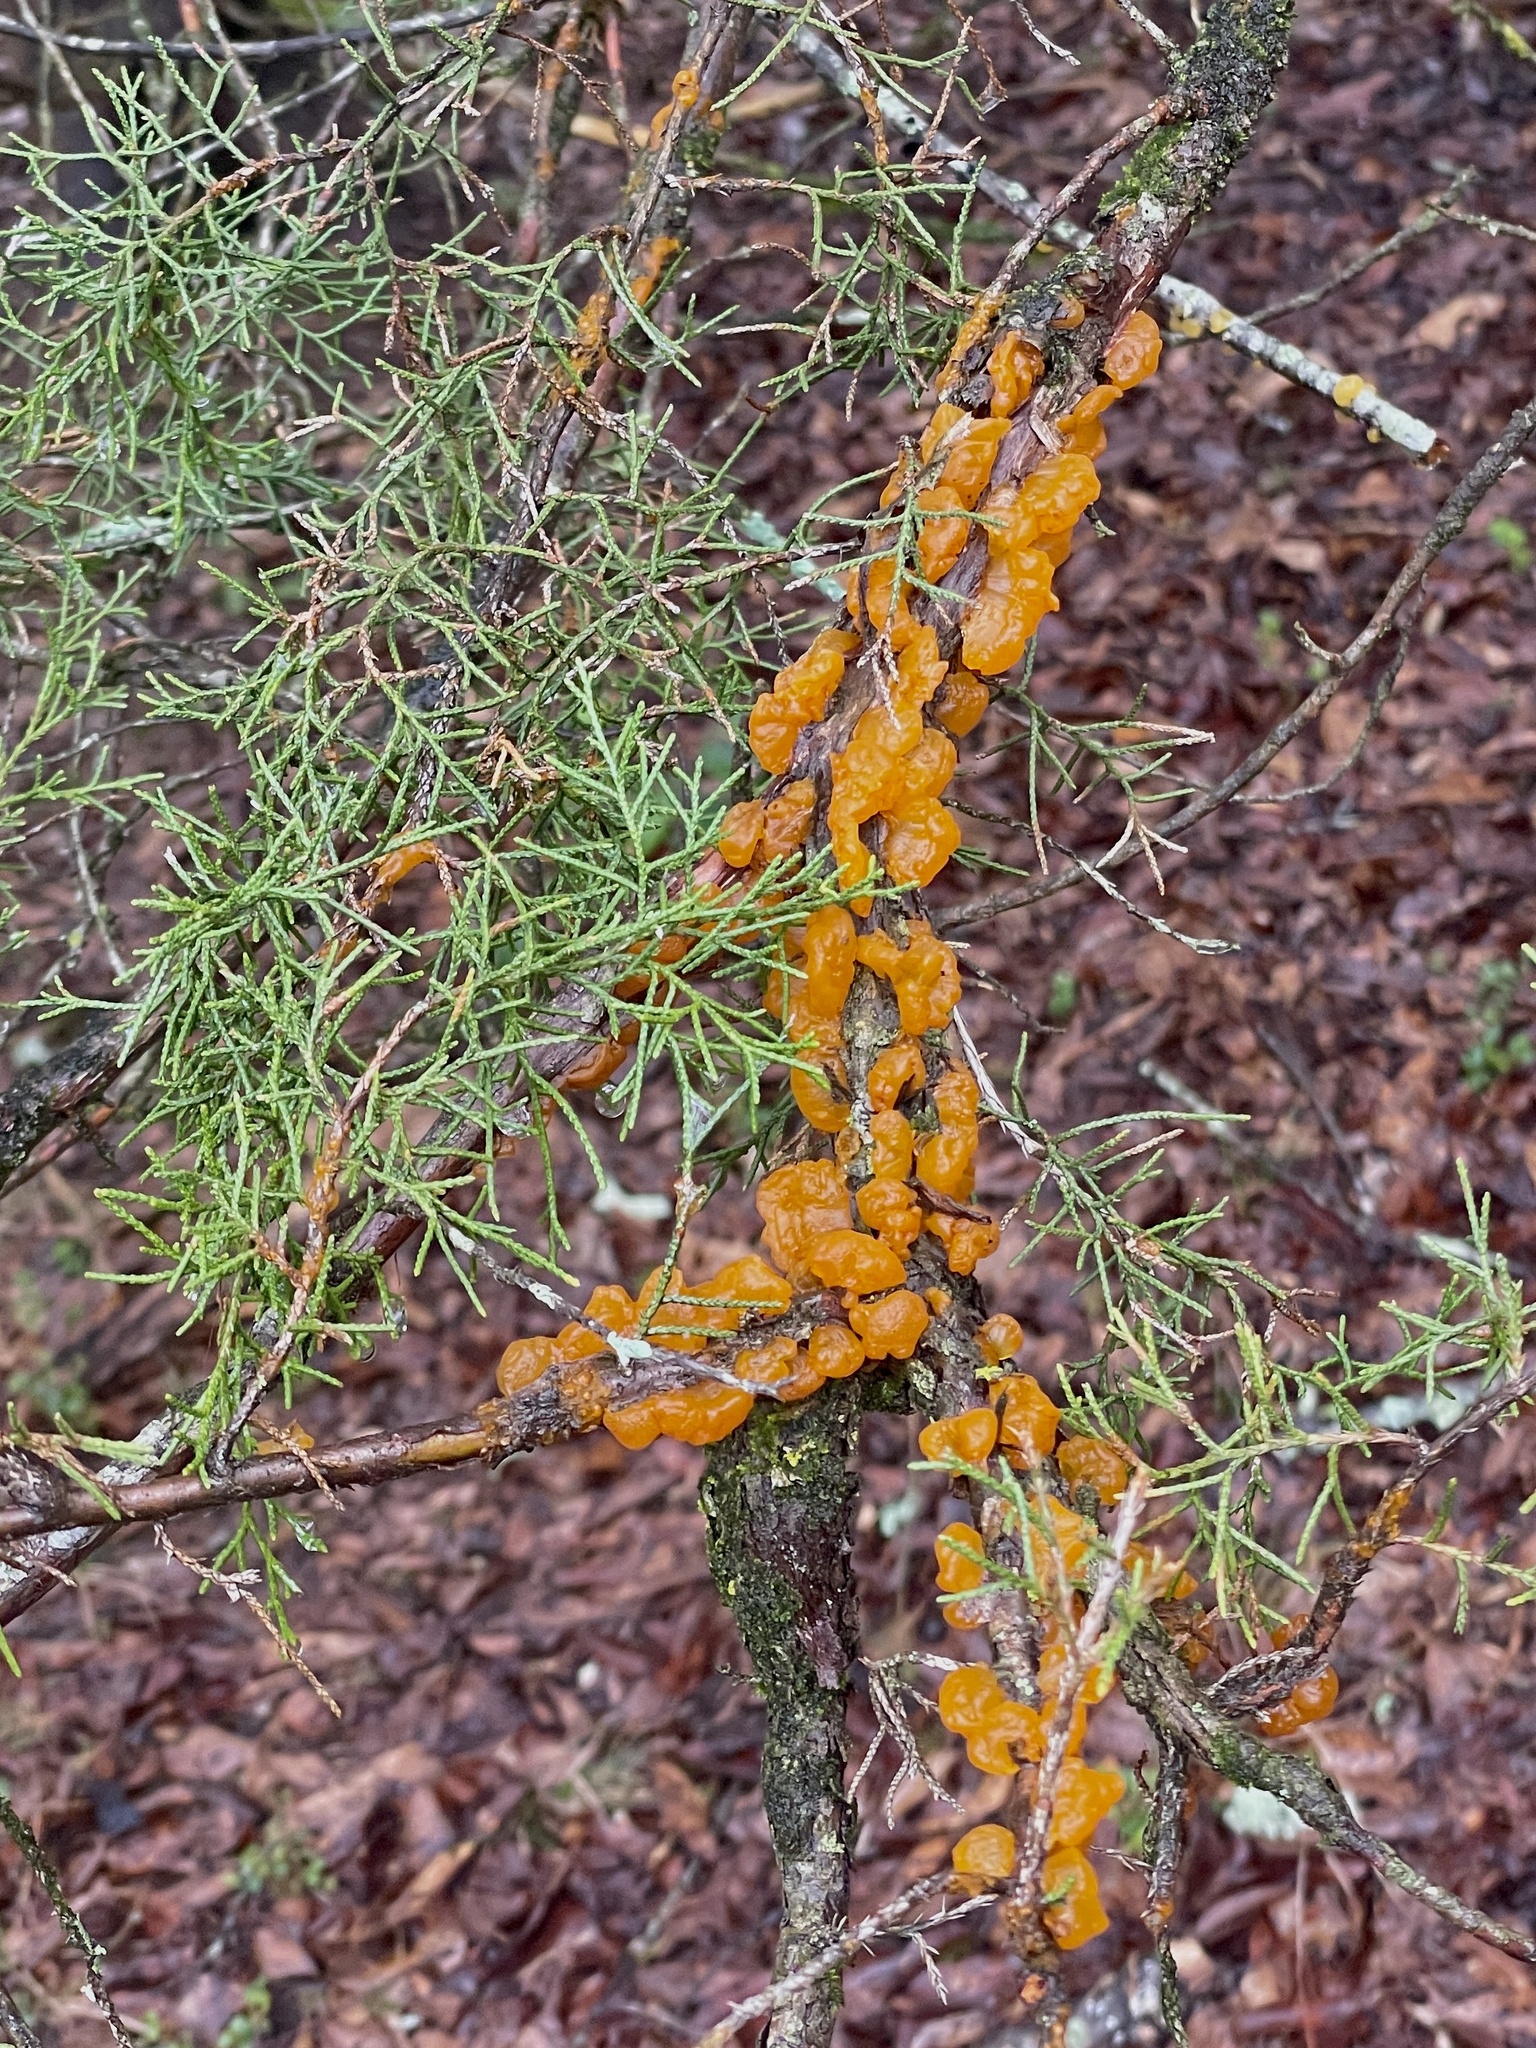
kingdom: Fungi
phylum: Basidiomycota
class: Pucciniomycetes
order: Pucciniales
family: Gymnosporangiaceae
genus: Gymnosporangium
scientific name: Gymnosporangium clavipes
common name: Quince rust
